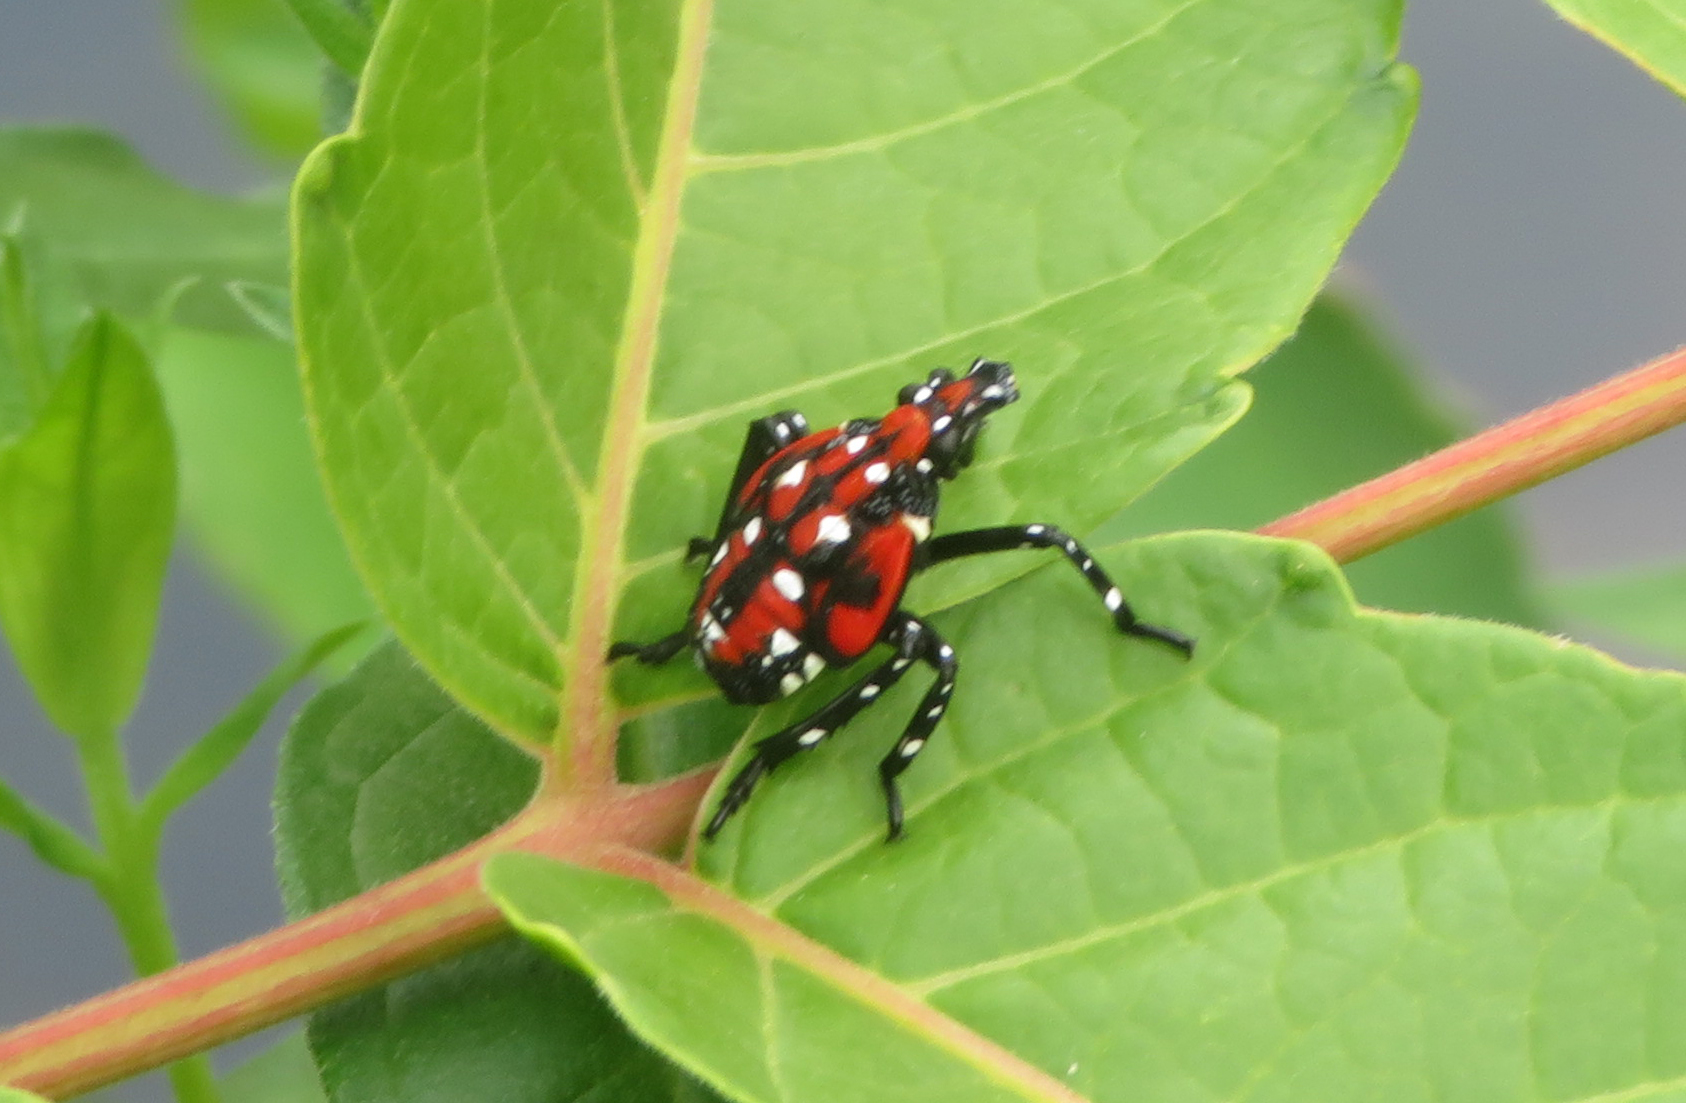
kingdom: Animalia
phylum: Arthropoda
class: Insecta
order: Hemiptera
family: Fulgoridae
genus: Lycorma
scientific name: Lycorma delicatula
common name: Spotted lanternfly
